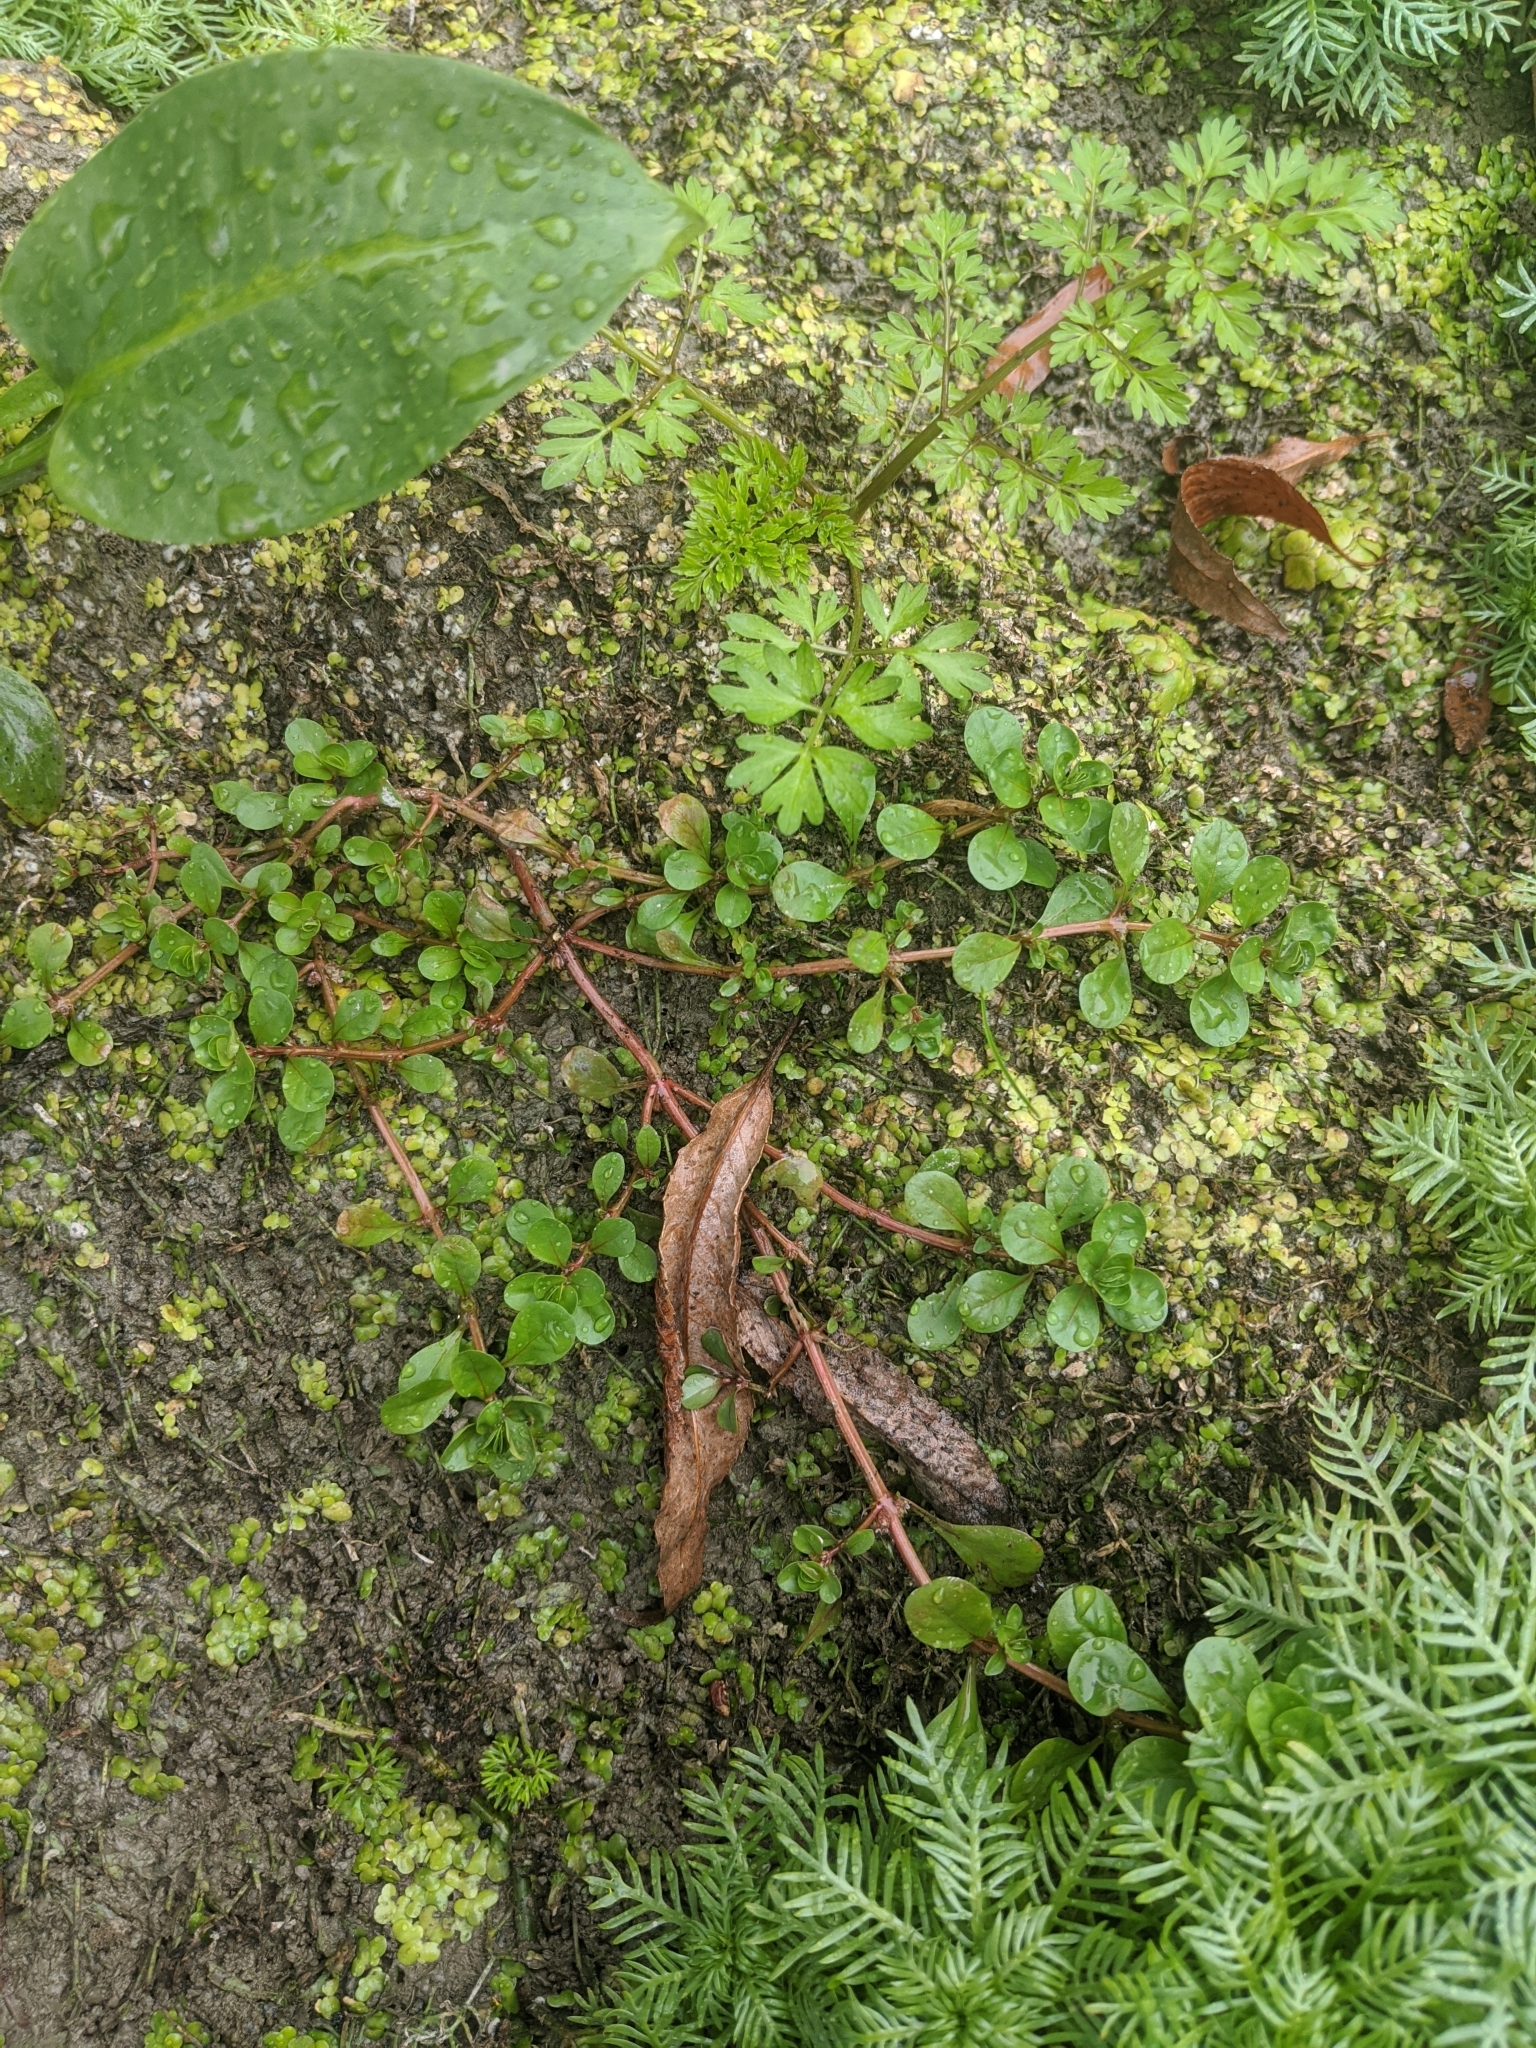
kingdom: Plantae
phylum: Tracheophyta
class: Magnoliopsida
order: Myrtales
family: Lythraceae
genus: Lythrum
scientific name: Lythrum portula
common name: Water purslane
